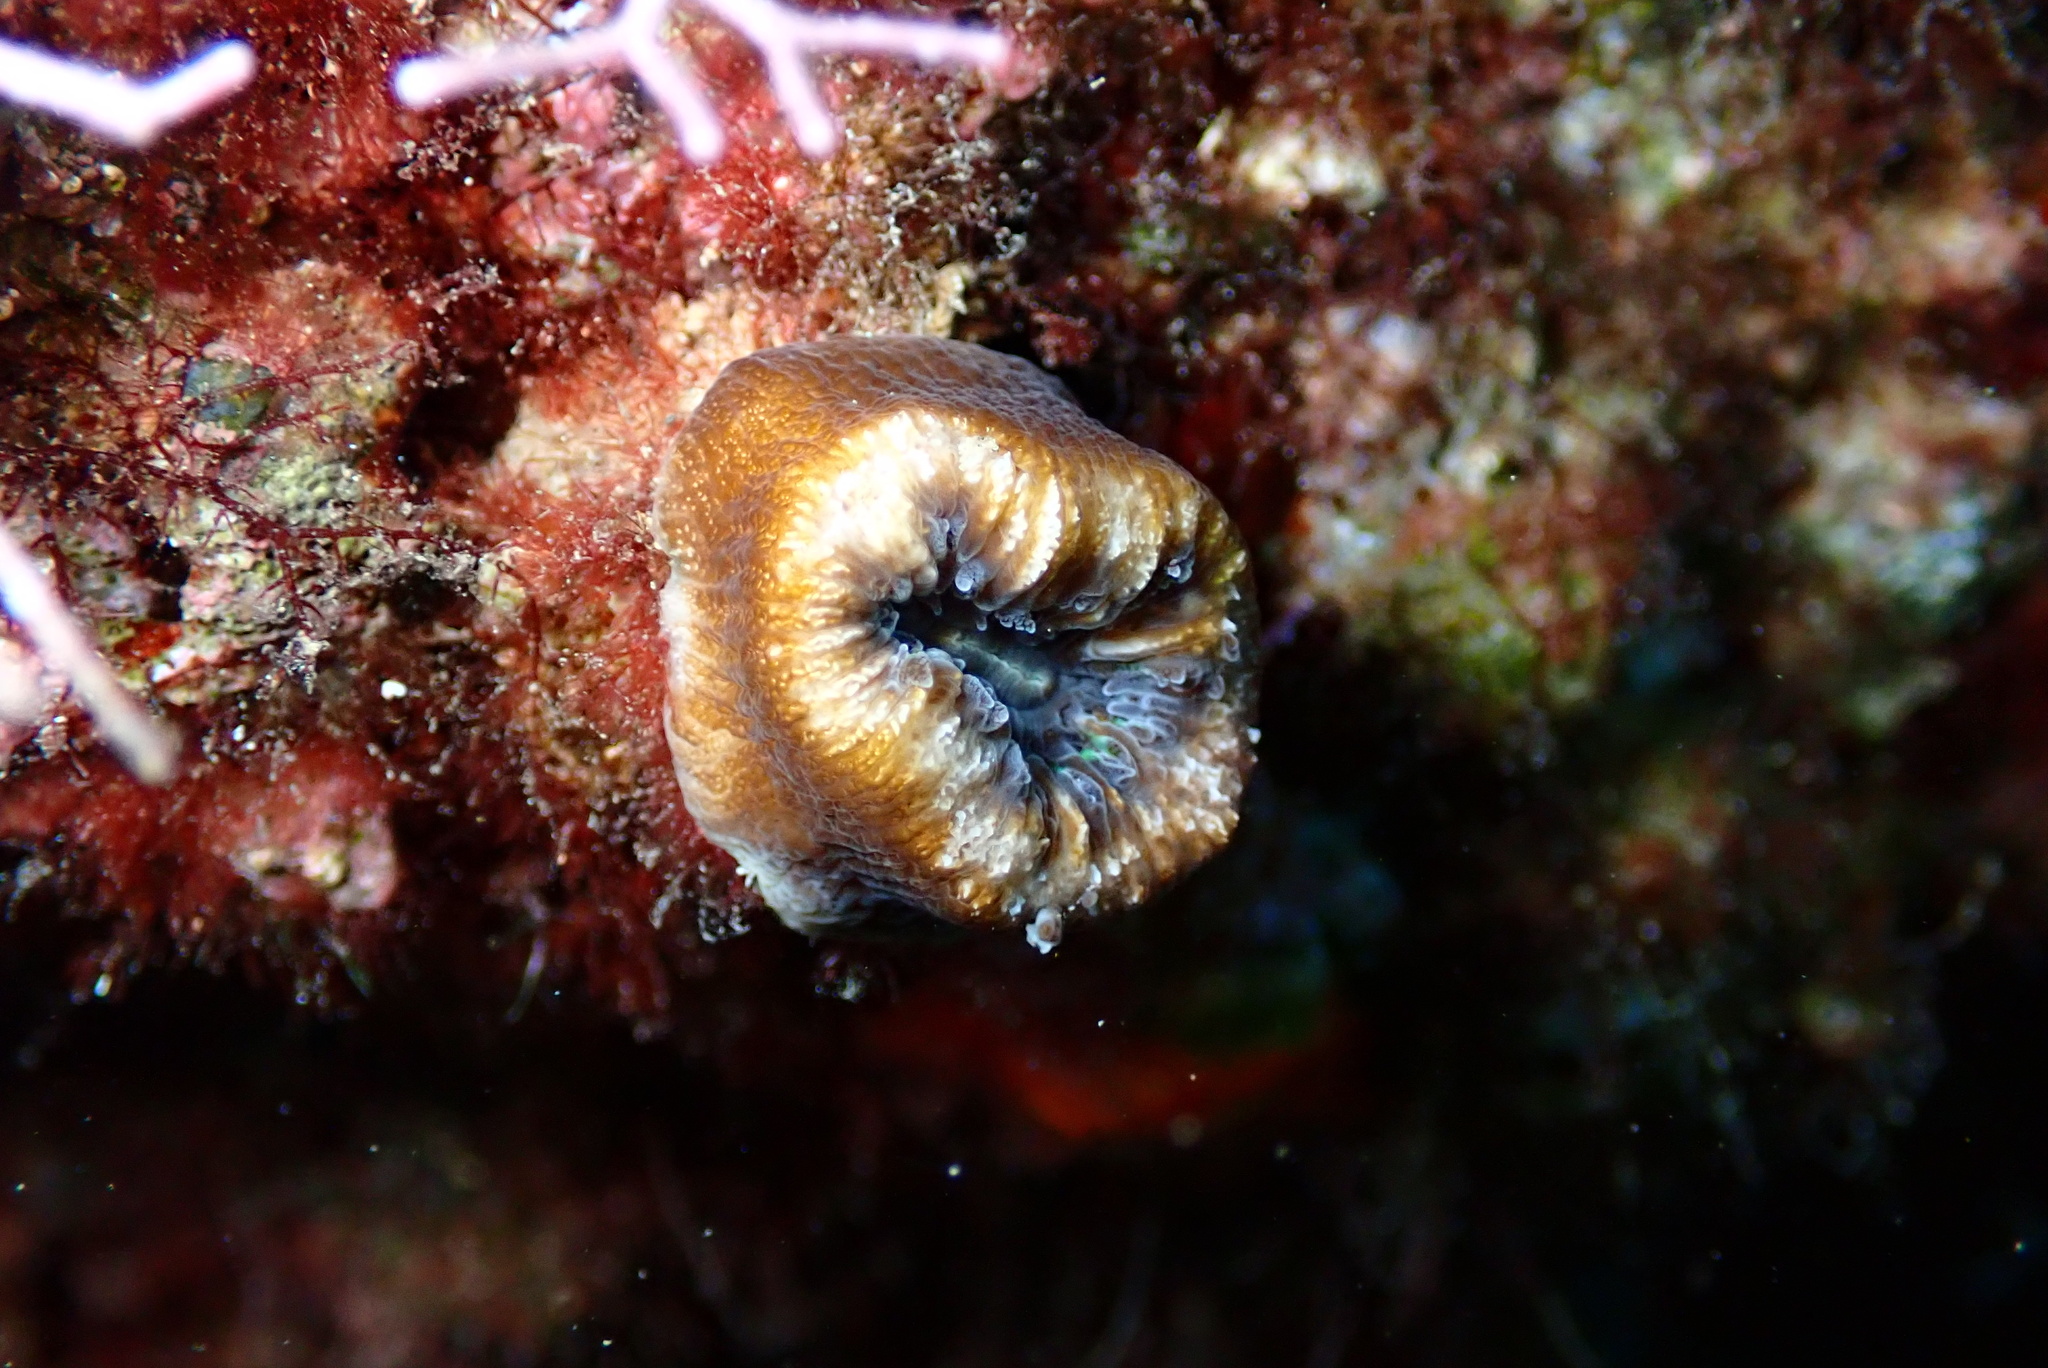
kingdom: Animalia
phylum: Cnidaria
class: Anthozoa
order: Scleractinia
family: Dendrophylliidae
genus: Balanophyllia
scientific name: Balanophyllia europaea
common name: Scarlet coral
